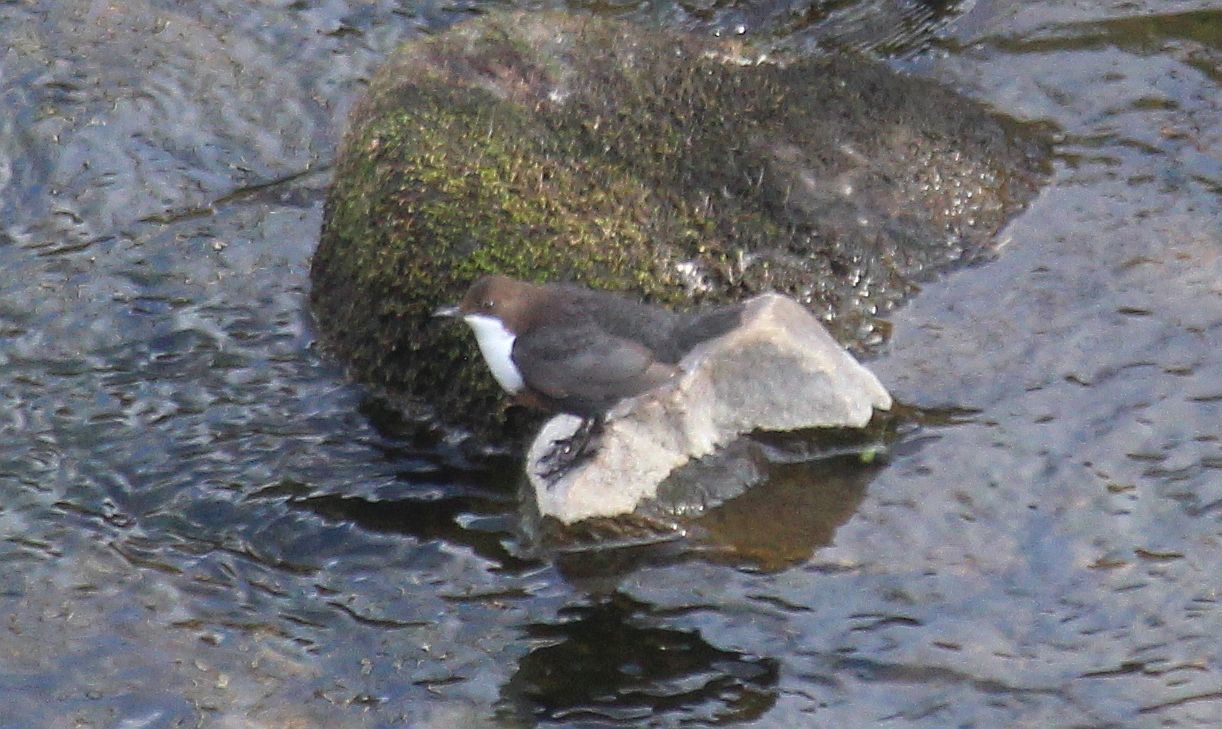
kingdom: Animalia
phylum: Chordata
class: Aves
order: Passeriformes
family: Cinclidae
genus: Cinclus
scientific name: Cinclus cinclus
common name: White-throated dipper
